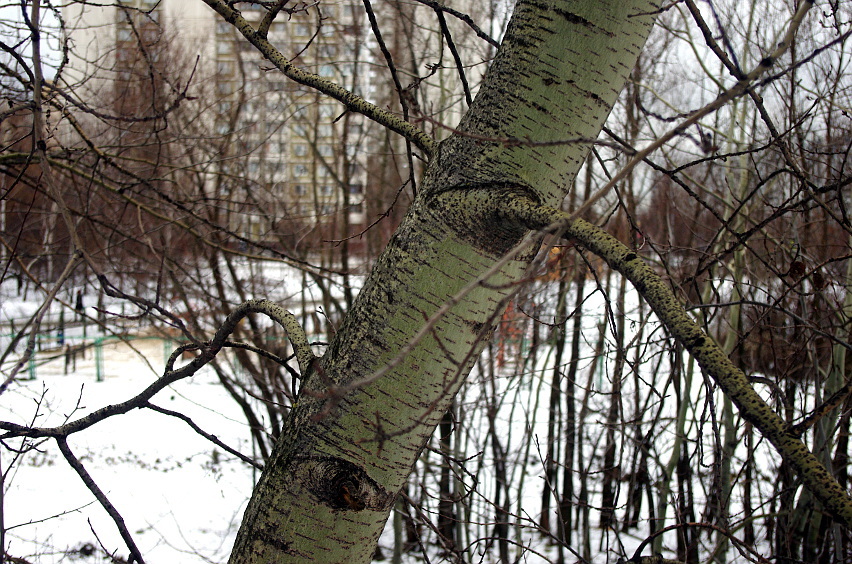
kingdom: Plantae
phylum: Tracheophyta
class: Magnoliopsida
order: Malpighiales
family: Salicaceae
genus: Populus
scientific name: Populus tremula
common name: European aspen
